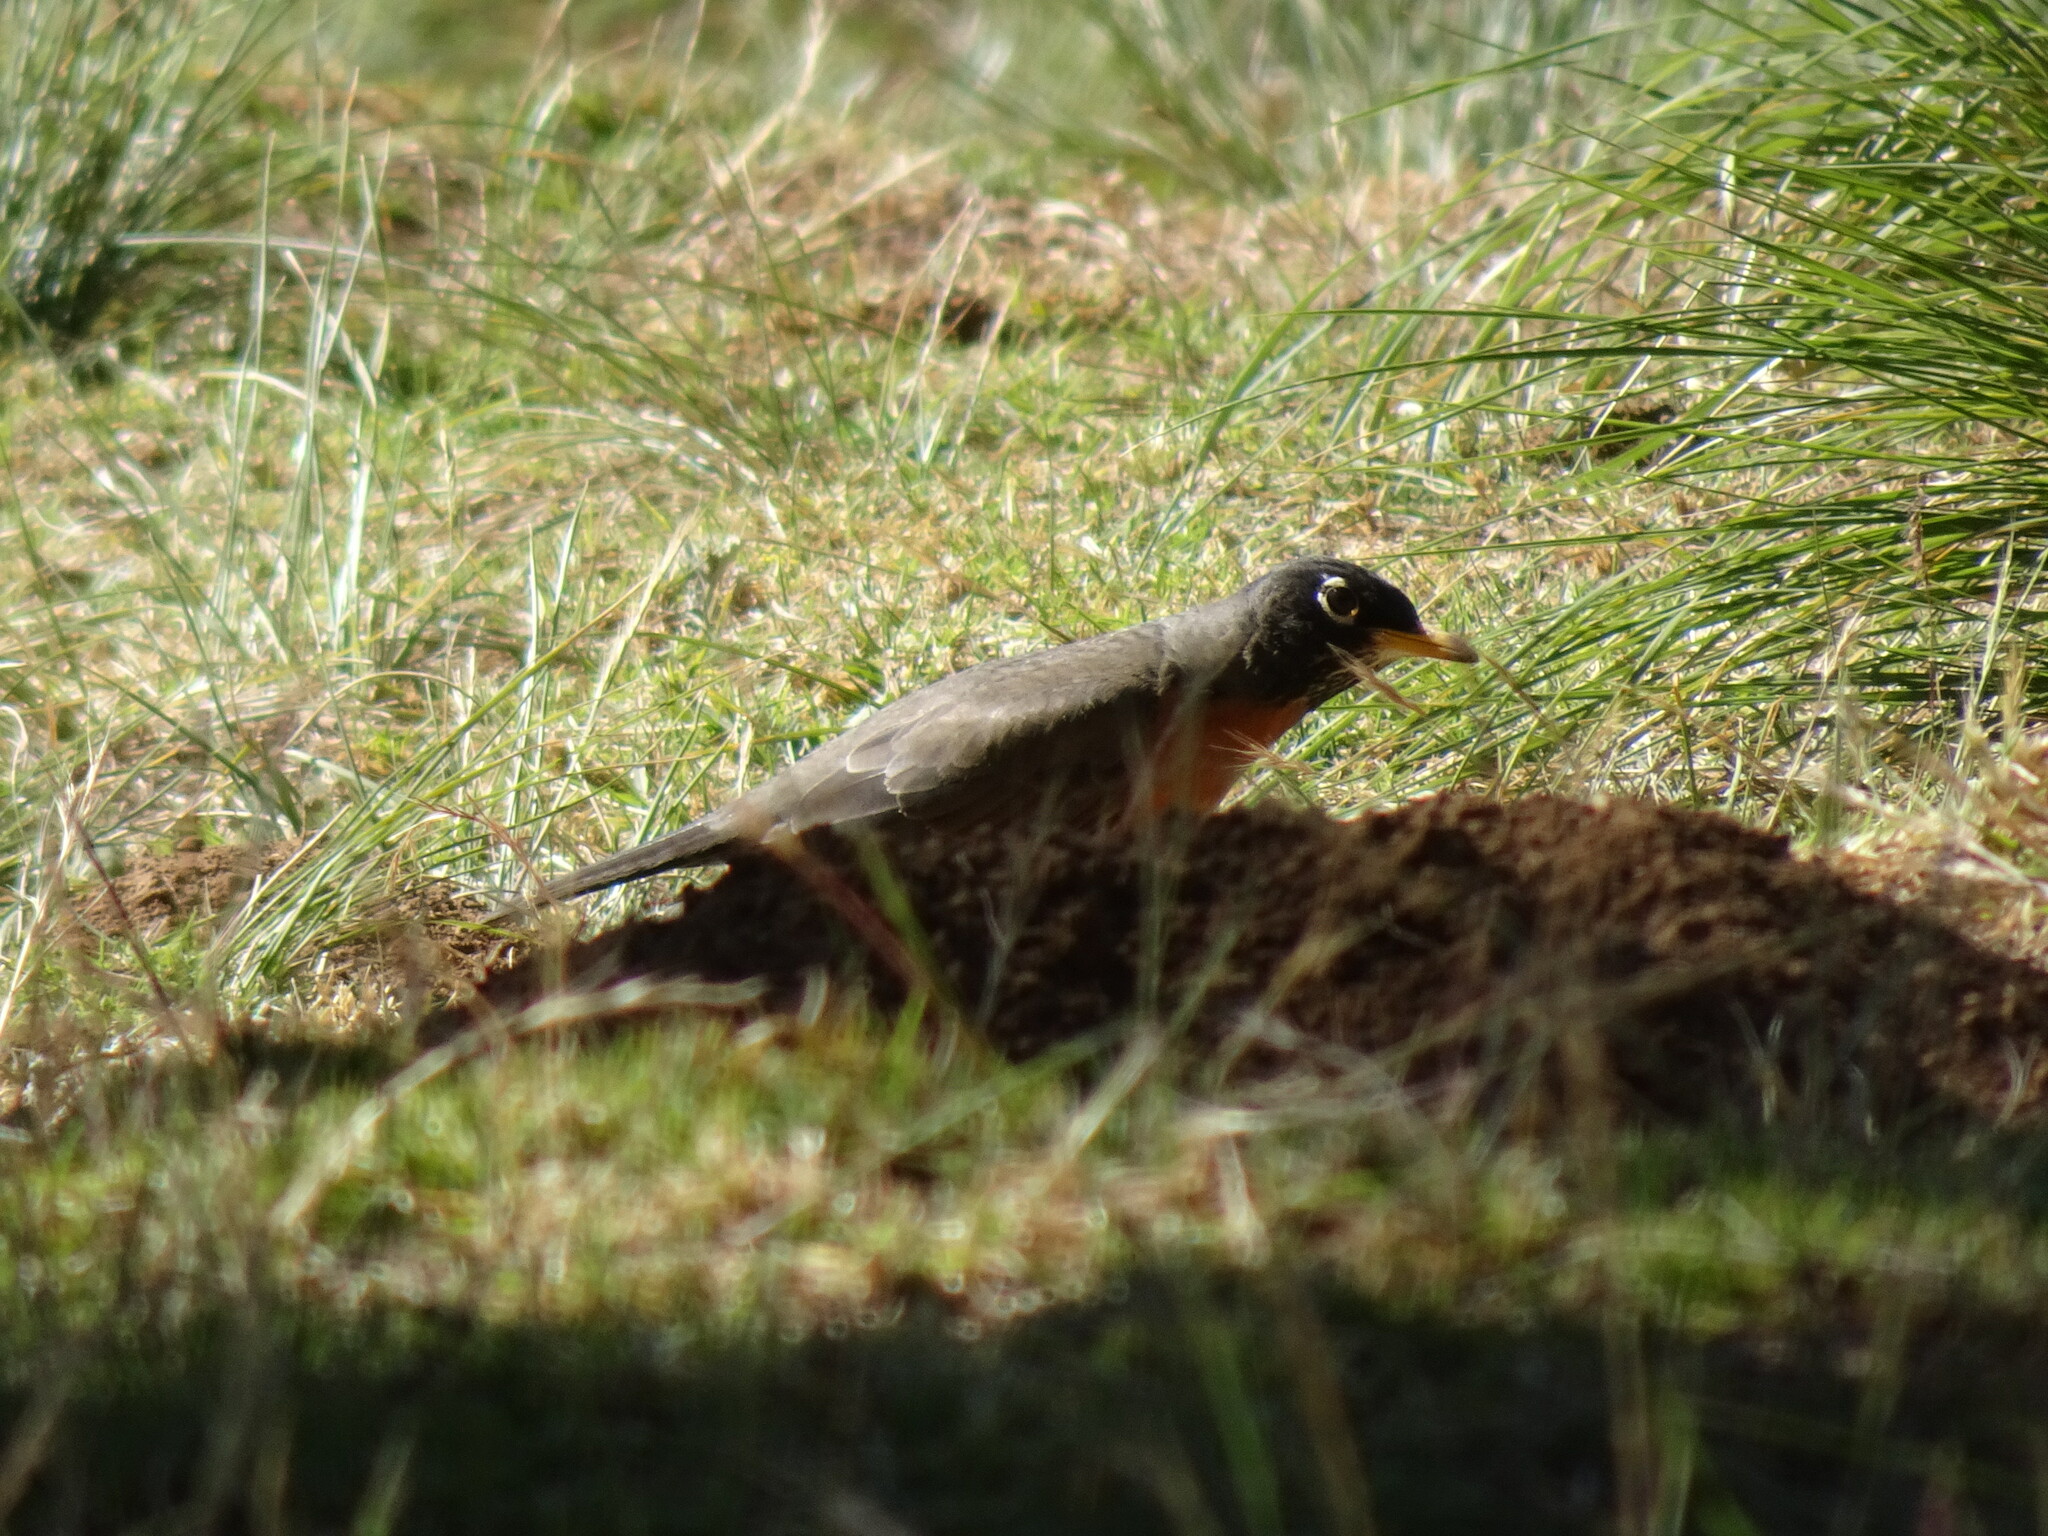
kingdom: Animalia
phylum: Chordata
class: Aves
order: Passeriformes
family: Turdidae
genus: Turdus
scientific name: Turdus migratorius
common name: American robin
